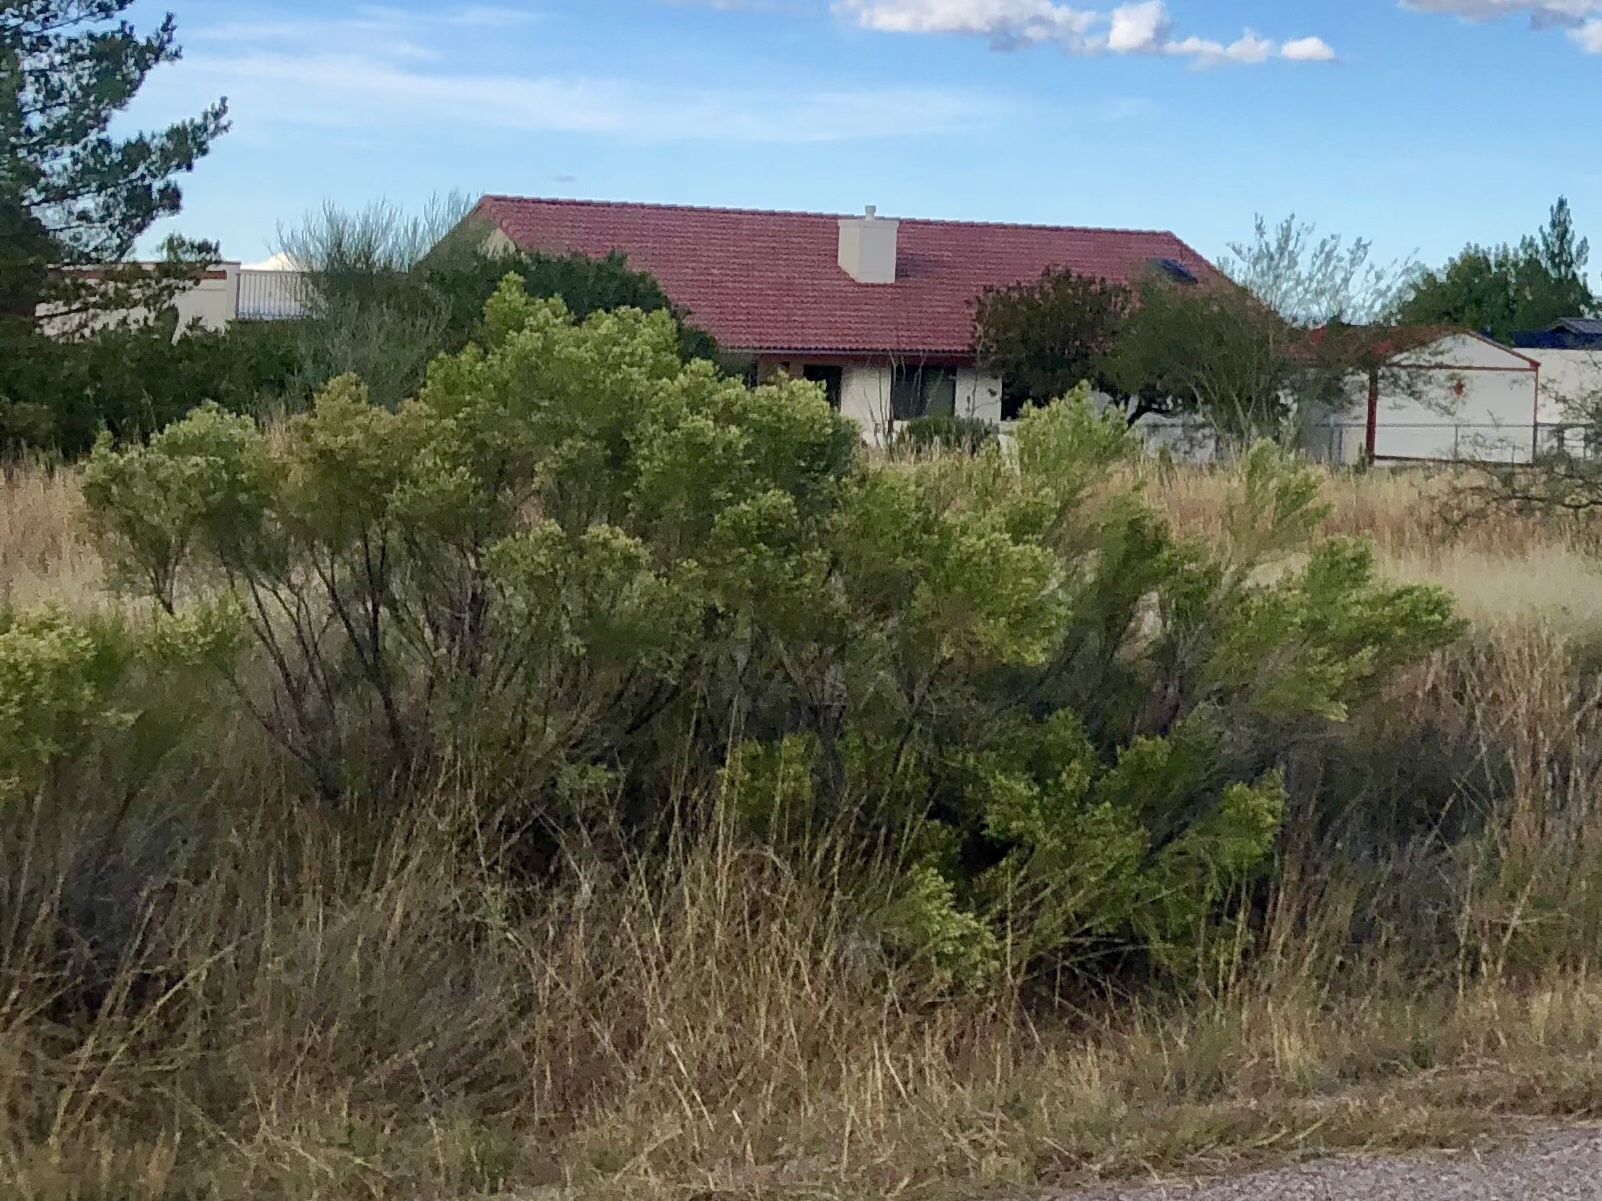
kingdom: Plantae
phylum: Tracheophyta
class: Magnoliopsida
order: Asterales
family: Asteraceae
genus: Baccharis
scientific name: Baccharis sarothroides
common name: Desert-broom
